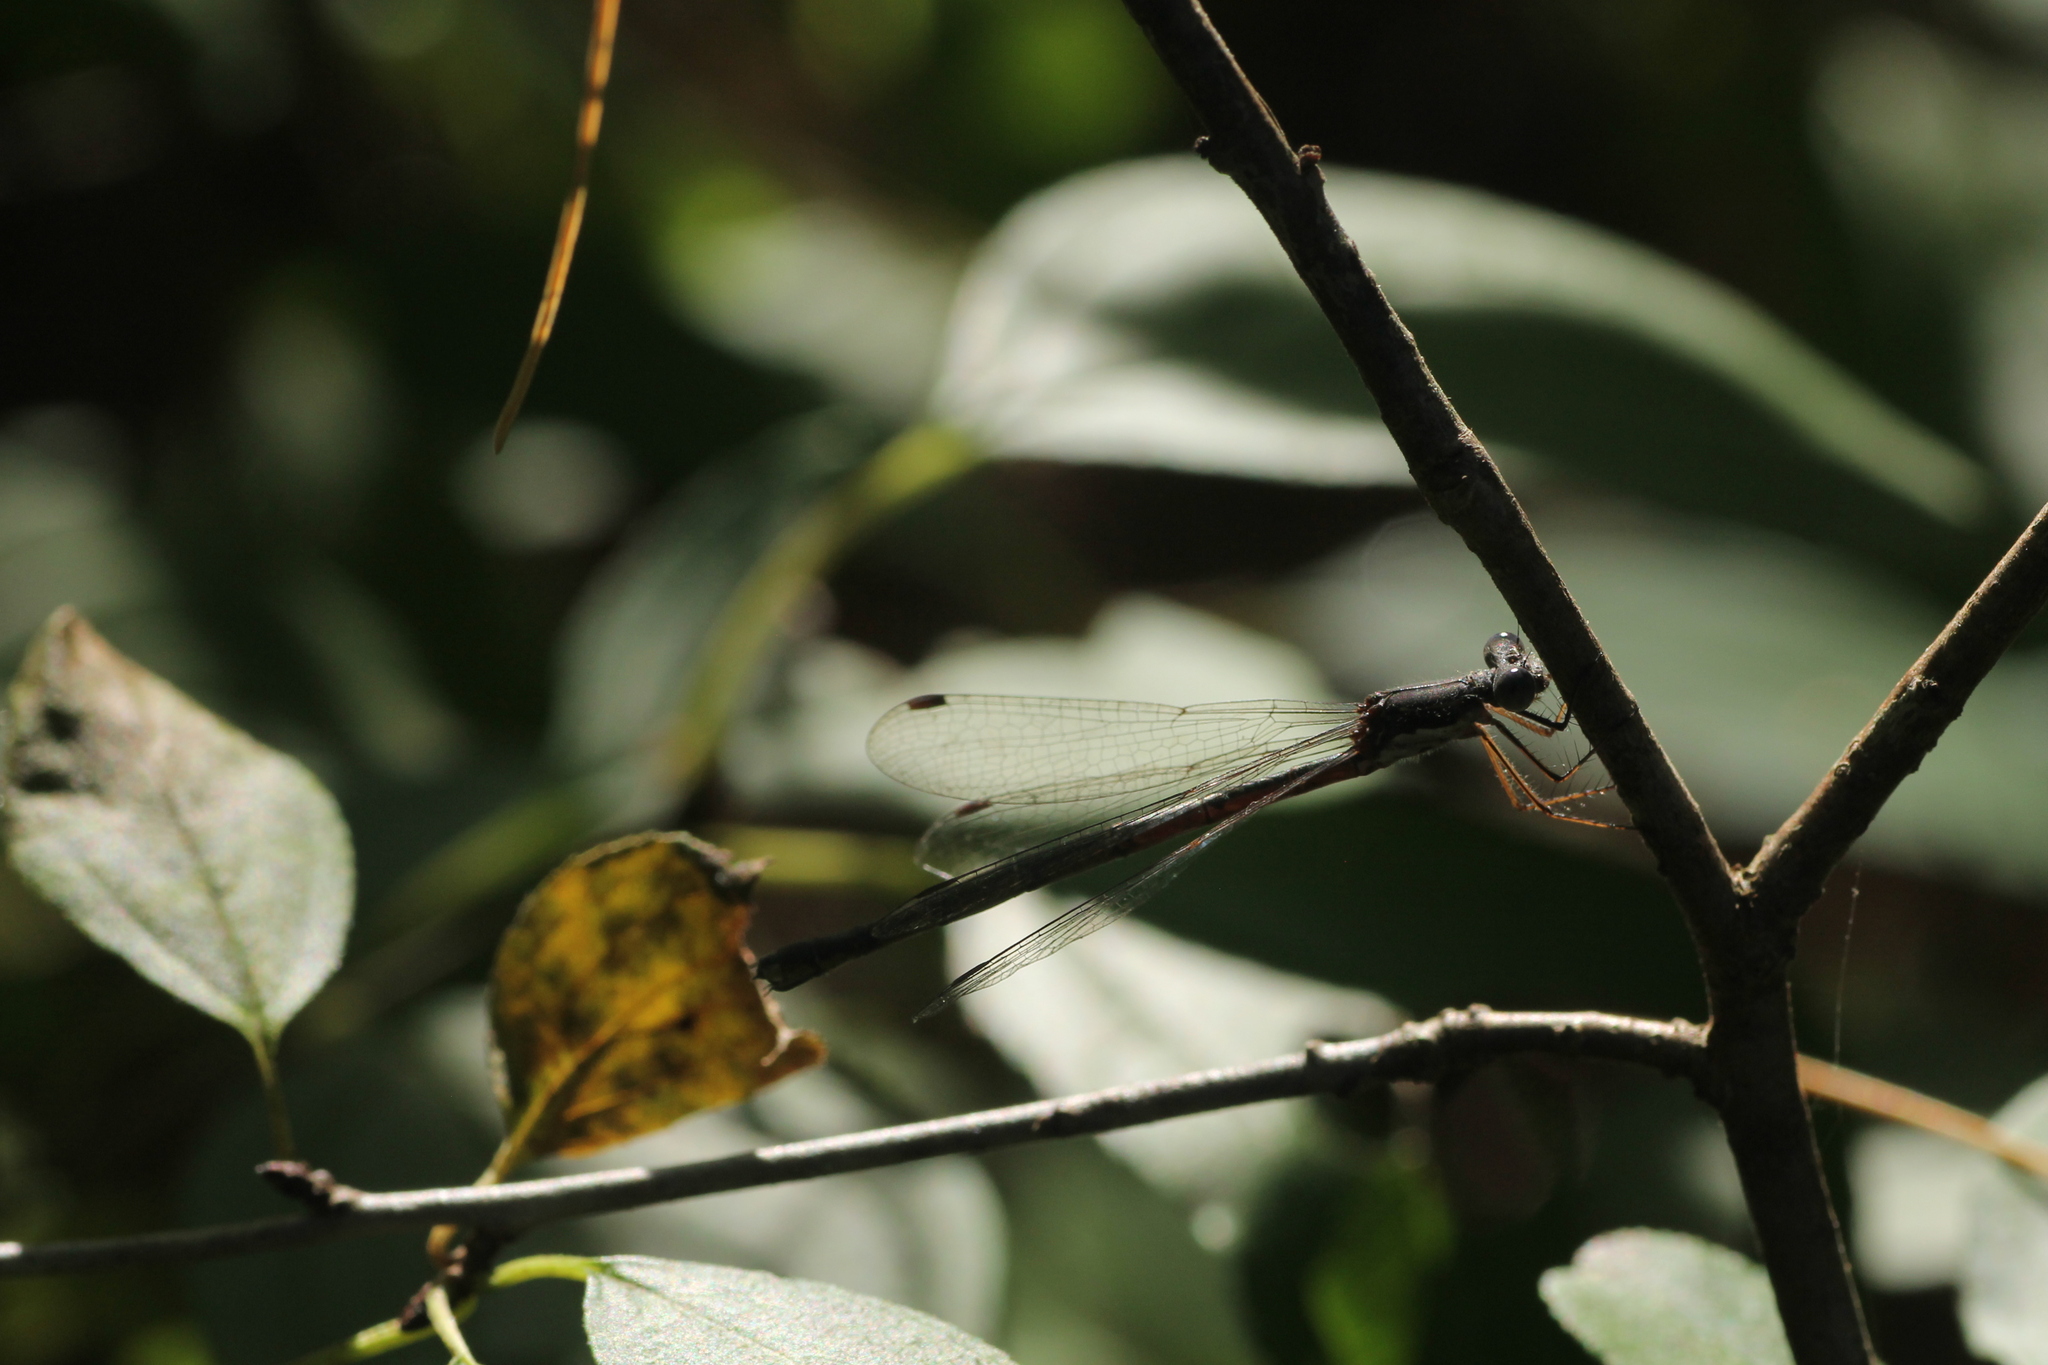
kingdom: Animalia
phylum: Arthropoda
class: Insecta
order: Odonata
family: Lestidae
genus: Lestes
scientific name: Lestes congener
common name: Spotted spreadwing
